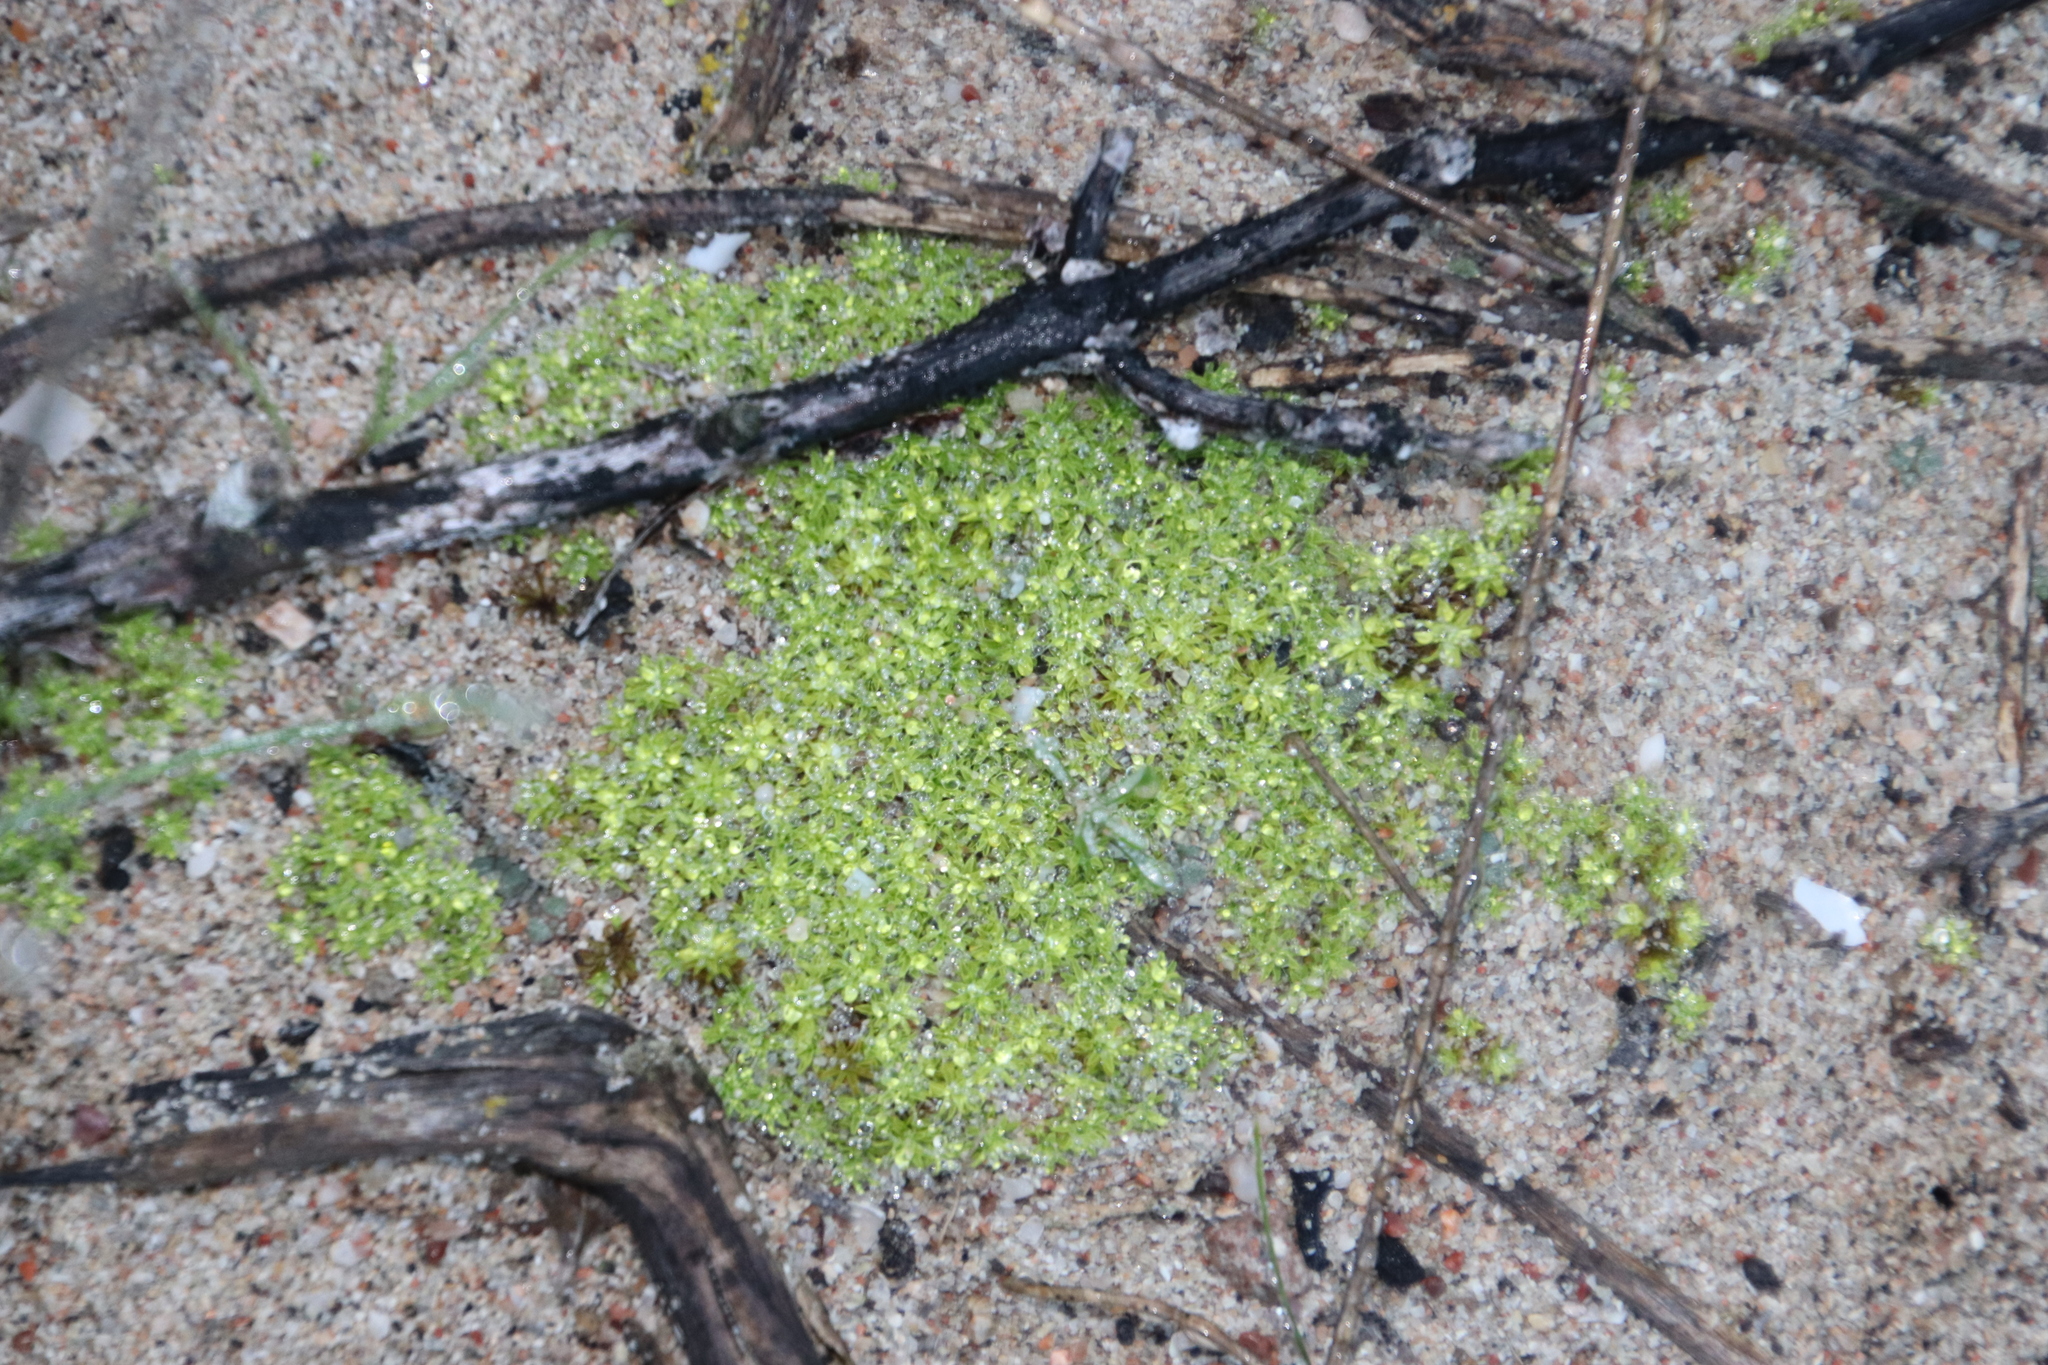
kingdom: Plantae
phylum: Bryophyta
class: Bryopsida
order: Pottiales
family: Pottiaceae
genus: Pseudocrossidium
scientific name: Pseudocrossidium crinitum
